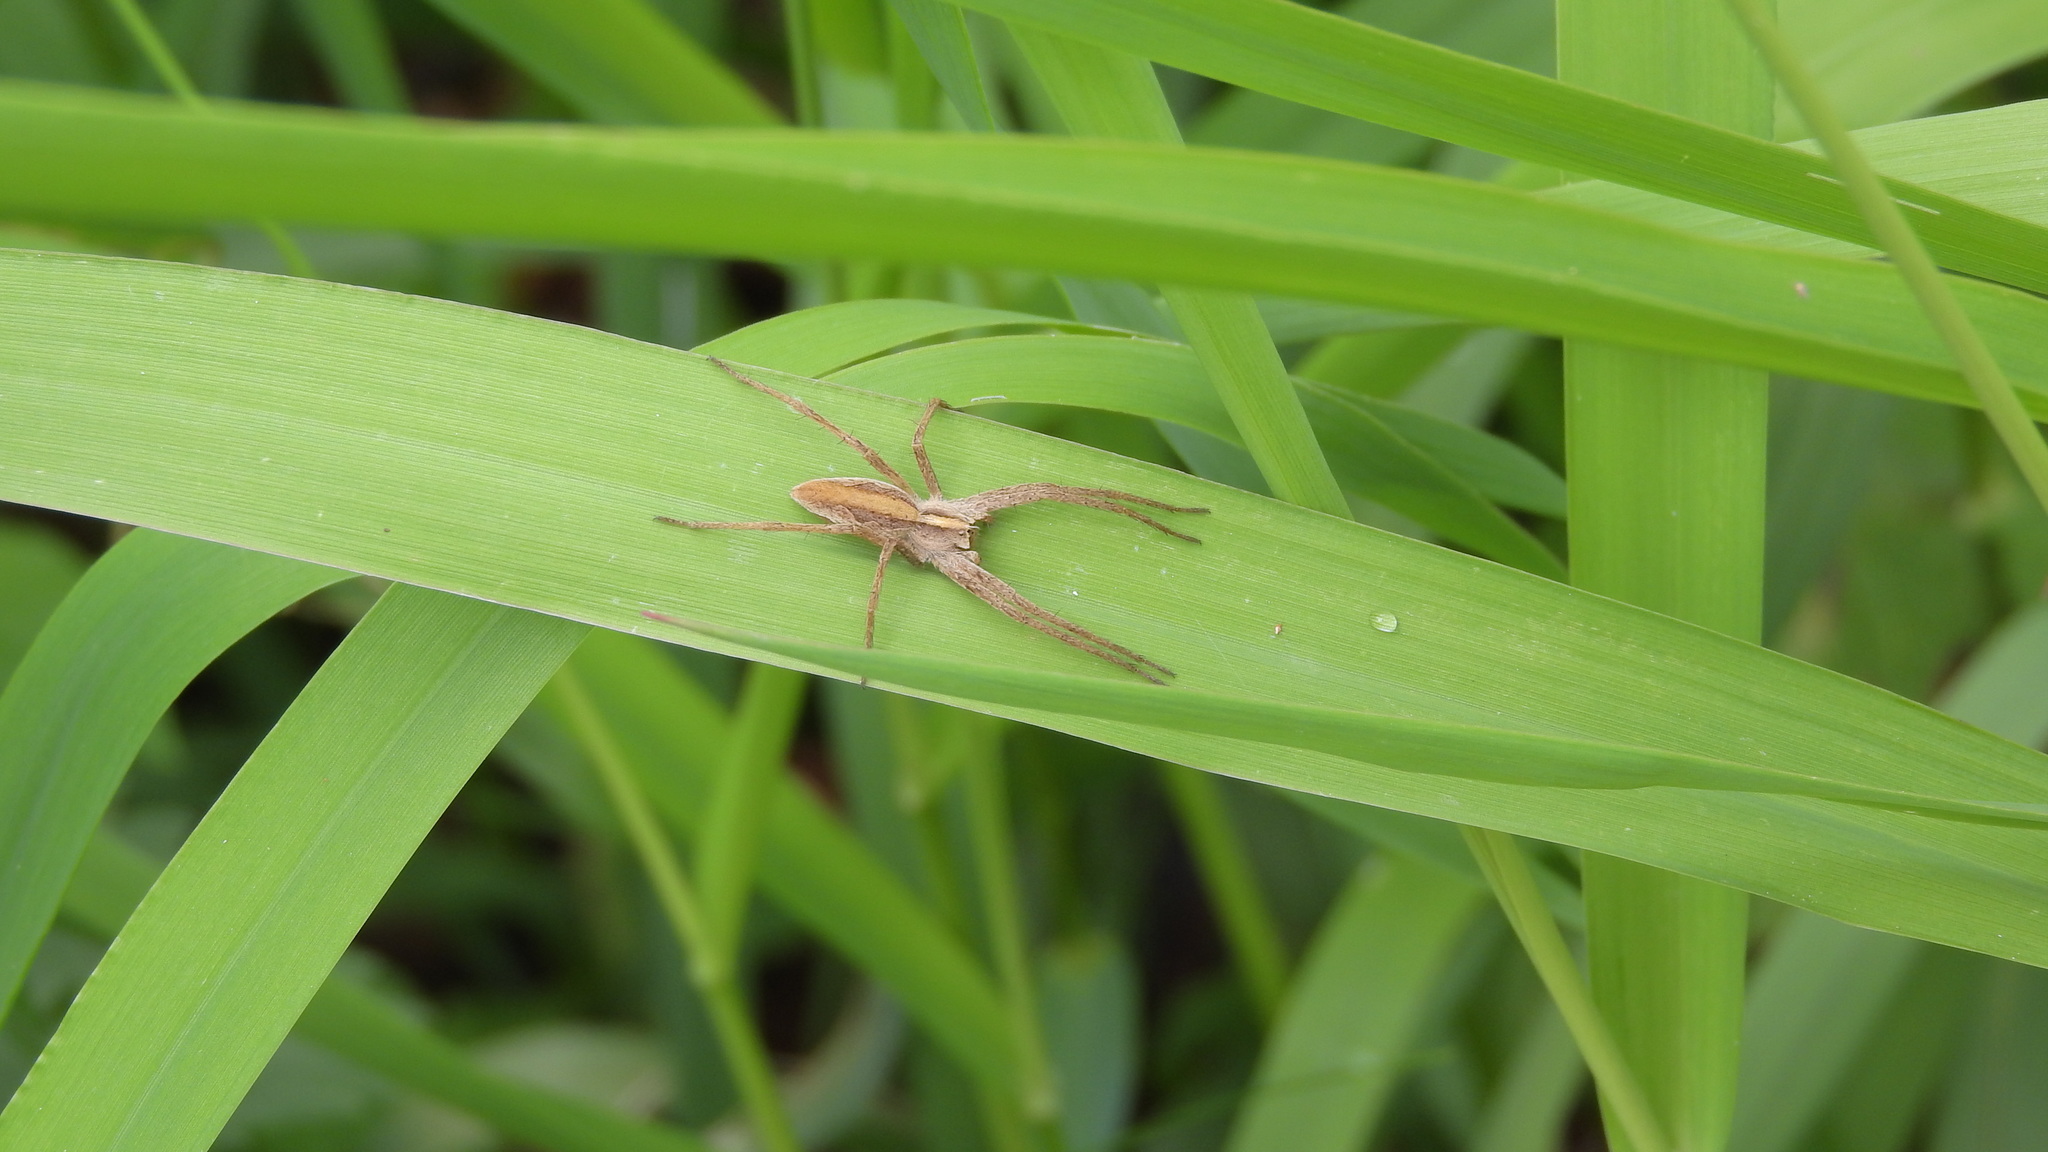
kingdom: Animalia
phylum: Arthropoda
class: Arachnida
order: Araneae
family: Pisauridae
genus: Pisaura
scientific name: Pisaura mirabilis
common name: Tent spider
